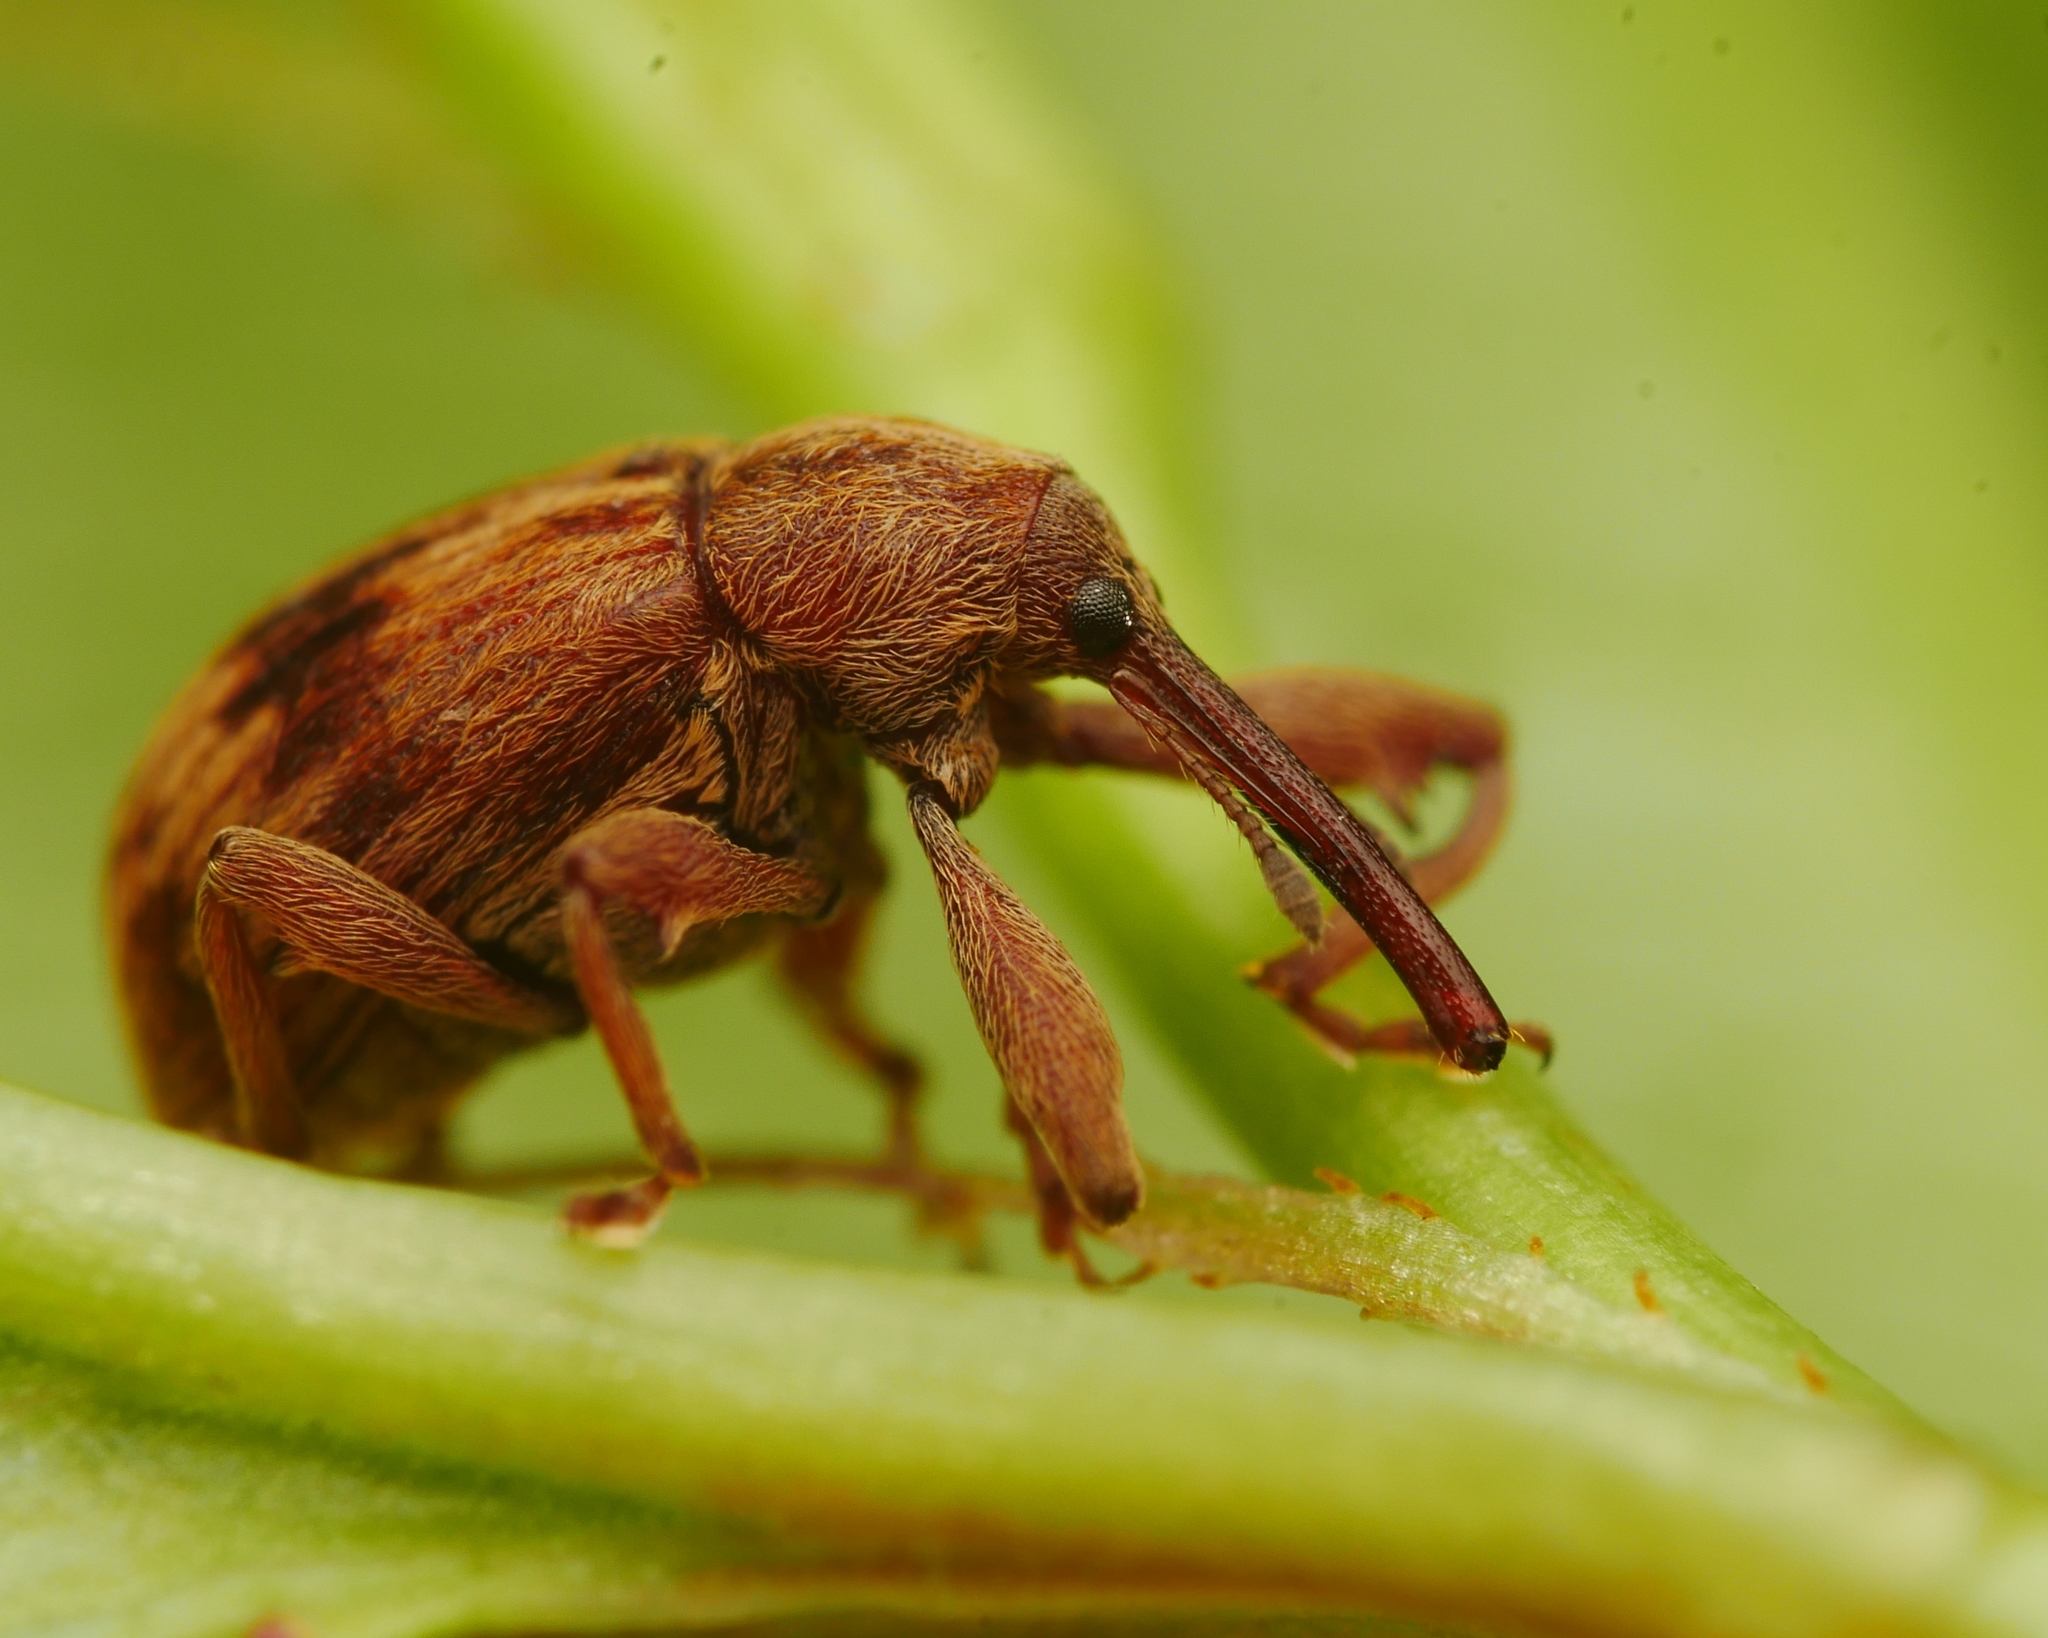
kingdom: Animalia
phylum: Arthropoda
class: Insecta
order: Coleoptera
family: Curculionidae
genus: Anthonomus
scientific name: Anthonomus rectirostris
